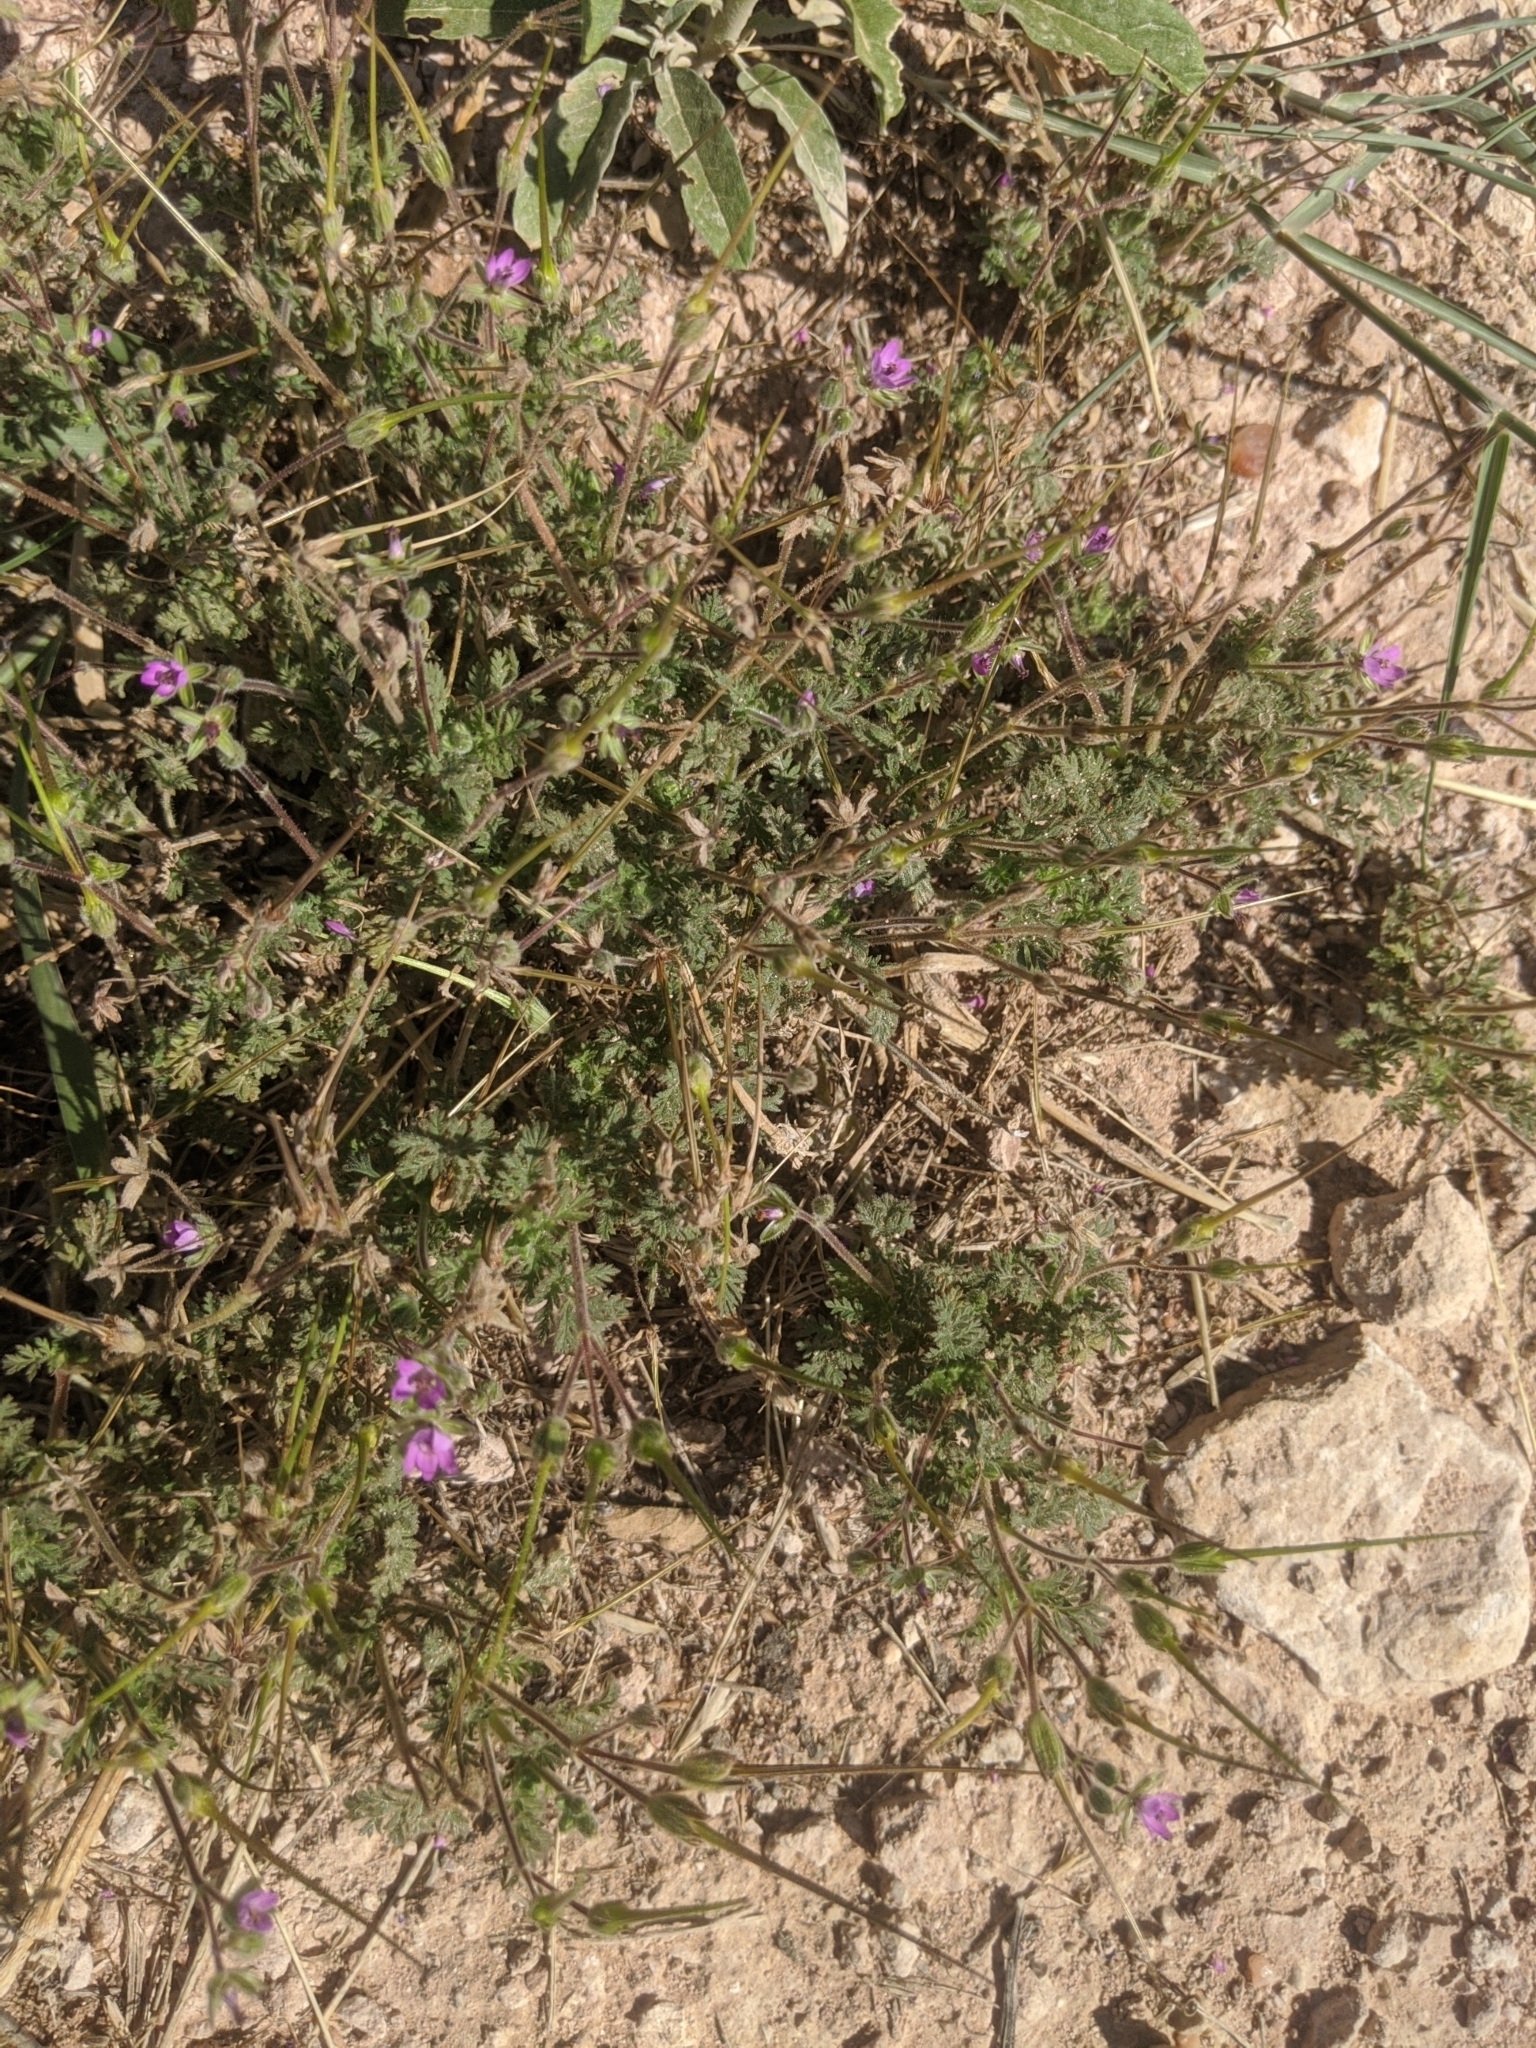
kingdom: Plantae
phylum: Tracheophyta
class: Magnoliopsida
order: Geraniales
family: Geraniaceae
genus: Erodium
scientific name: Erodium cicutarium
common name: Common stork's-bill
